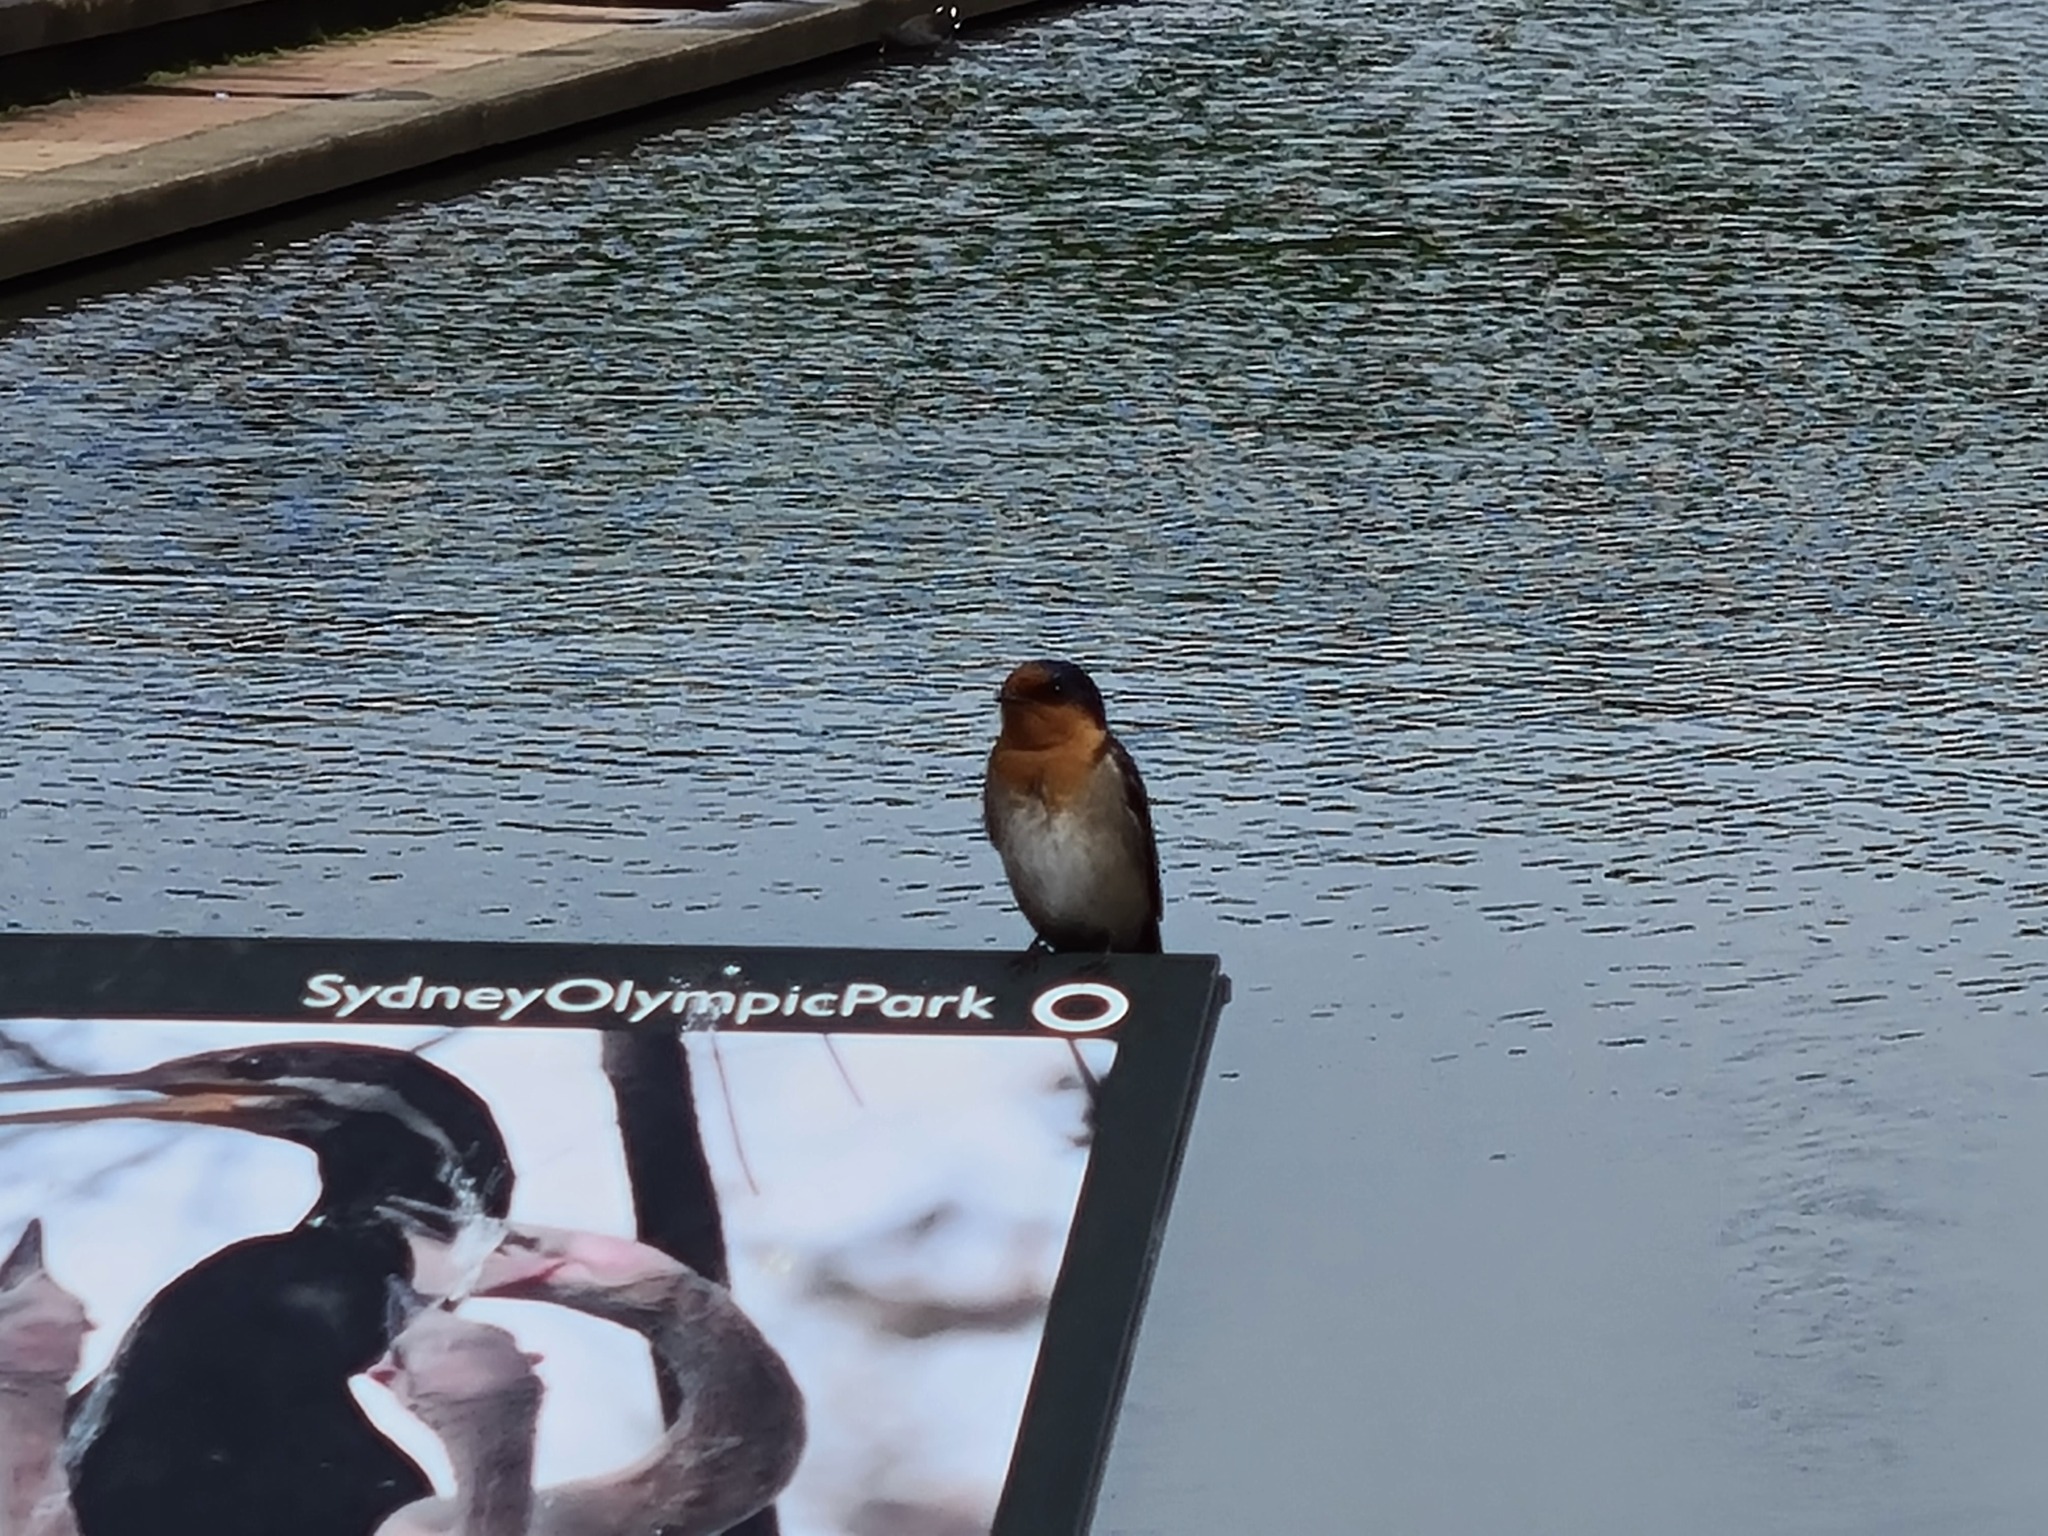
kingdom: Animalia
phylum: Chordata
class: Aves
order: Passeriformes
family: Hirundinidae
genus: Hirundo
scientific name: Hirundo neoxena
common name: Welcome swallow
